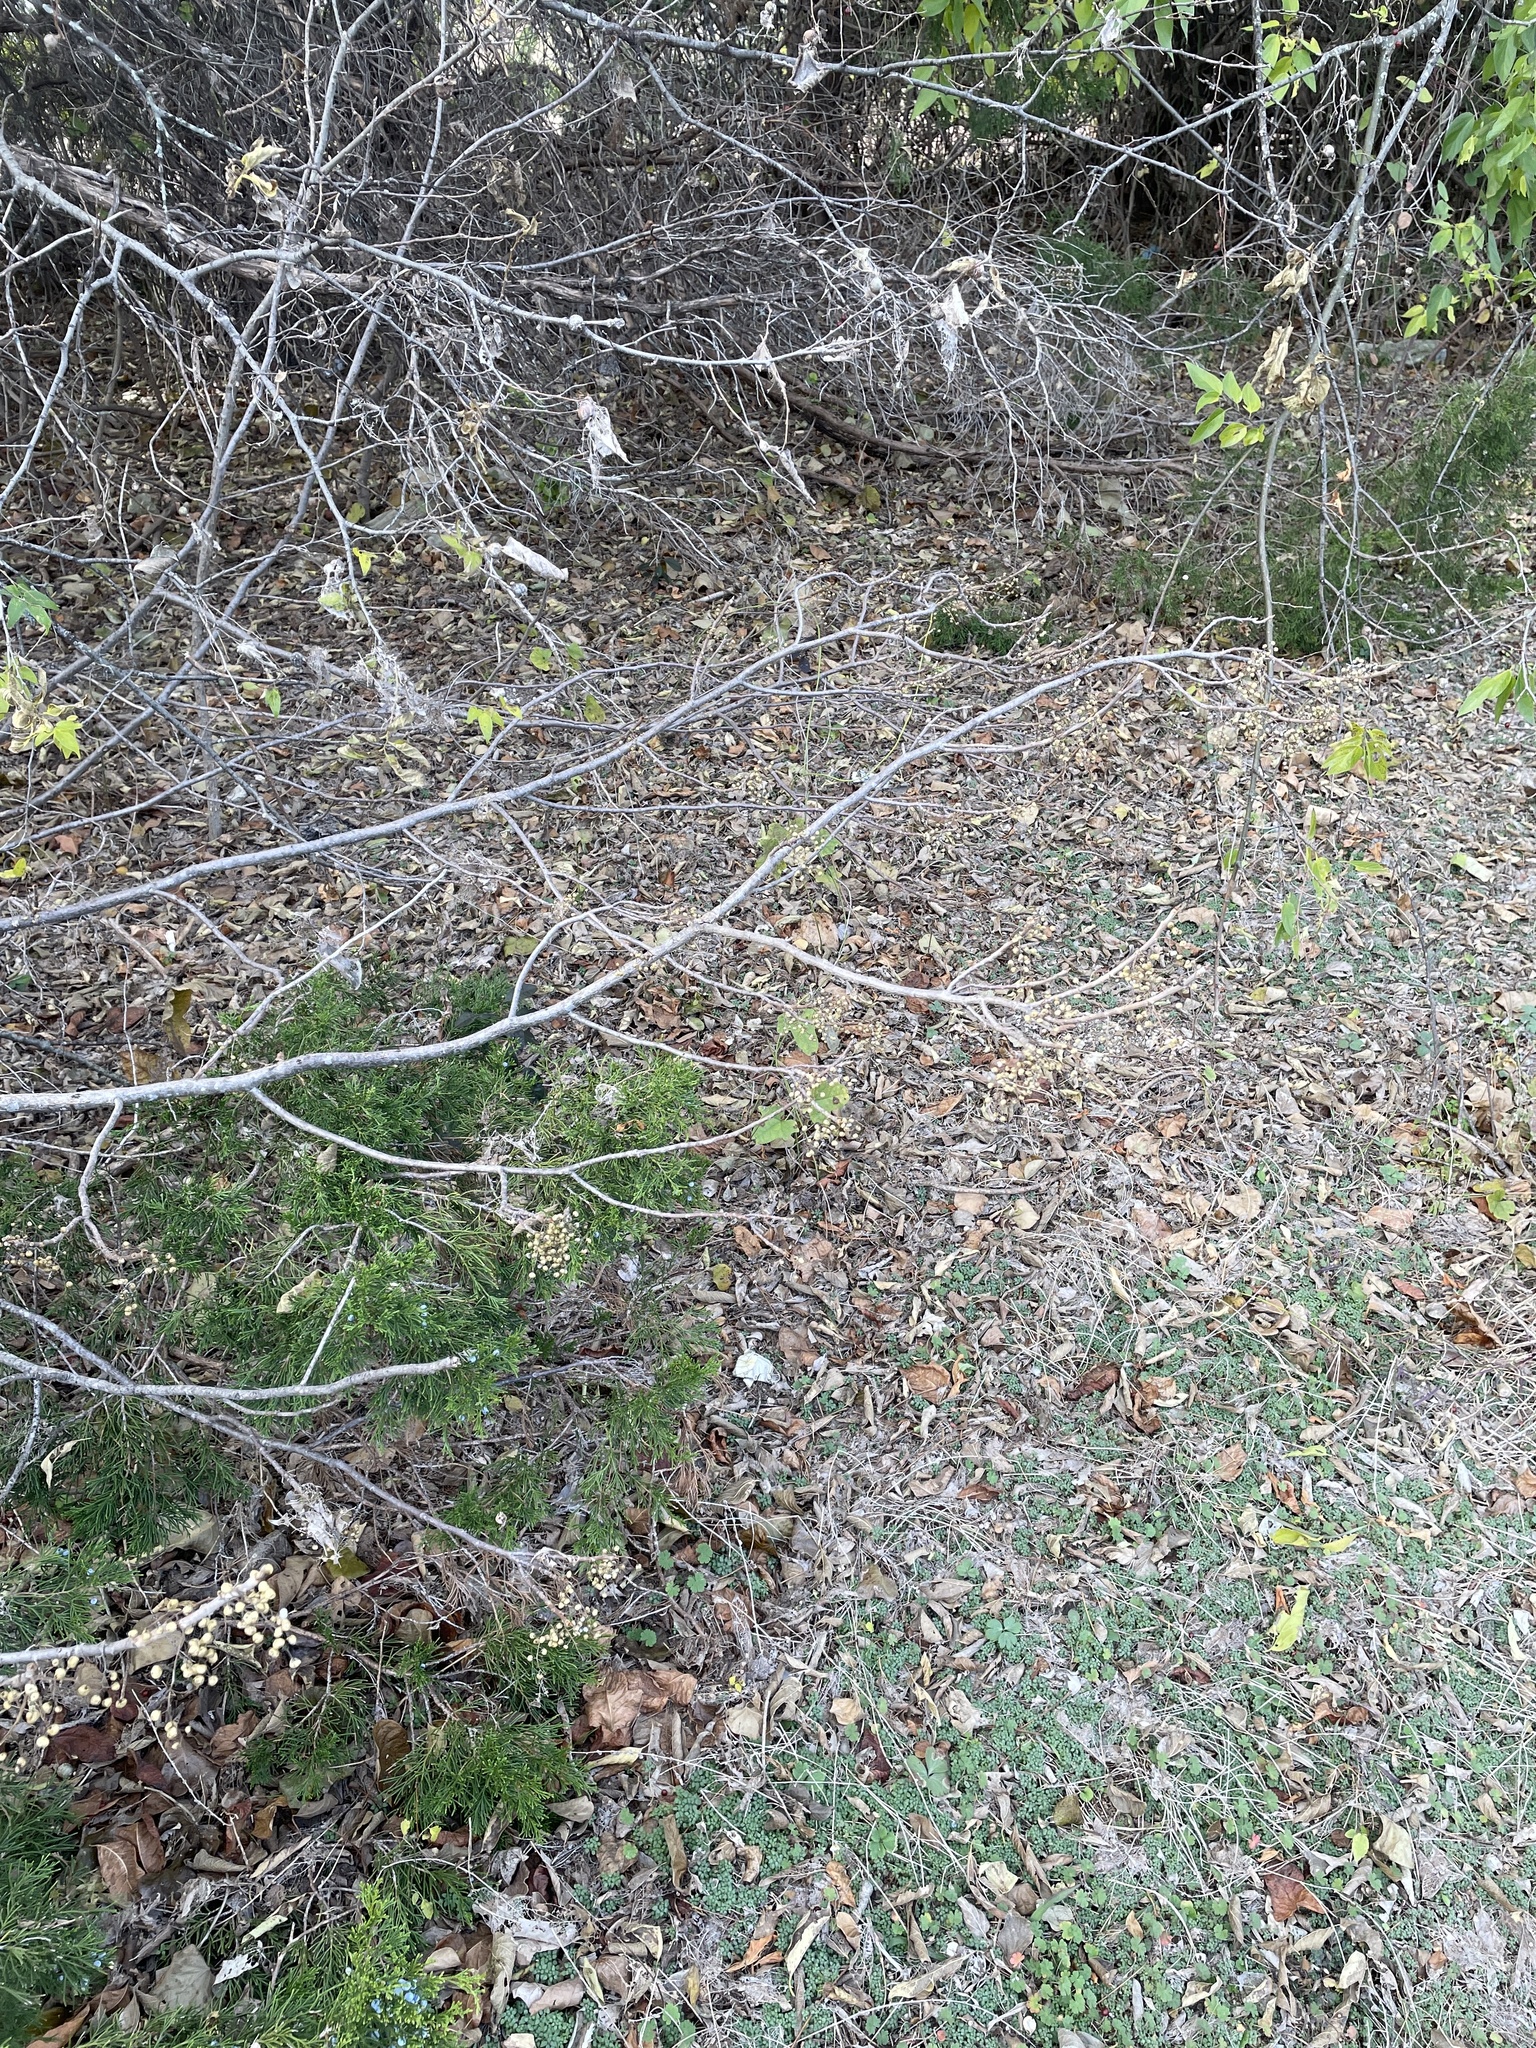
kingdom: Plantae
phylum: Tracheophyta
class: Magnoliopsida
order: Sapindales
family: Anacardiaceae
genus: Toxicodendron
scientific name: Toxicodendron radicans
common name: Poison ivy
